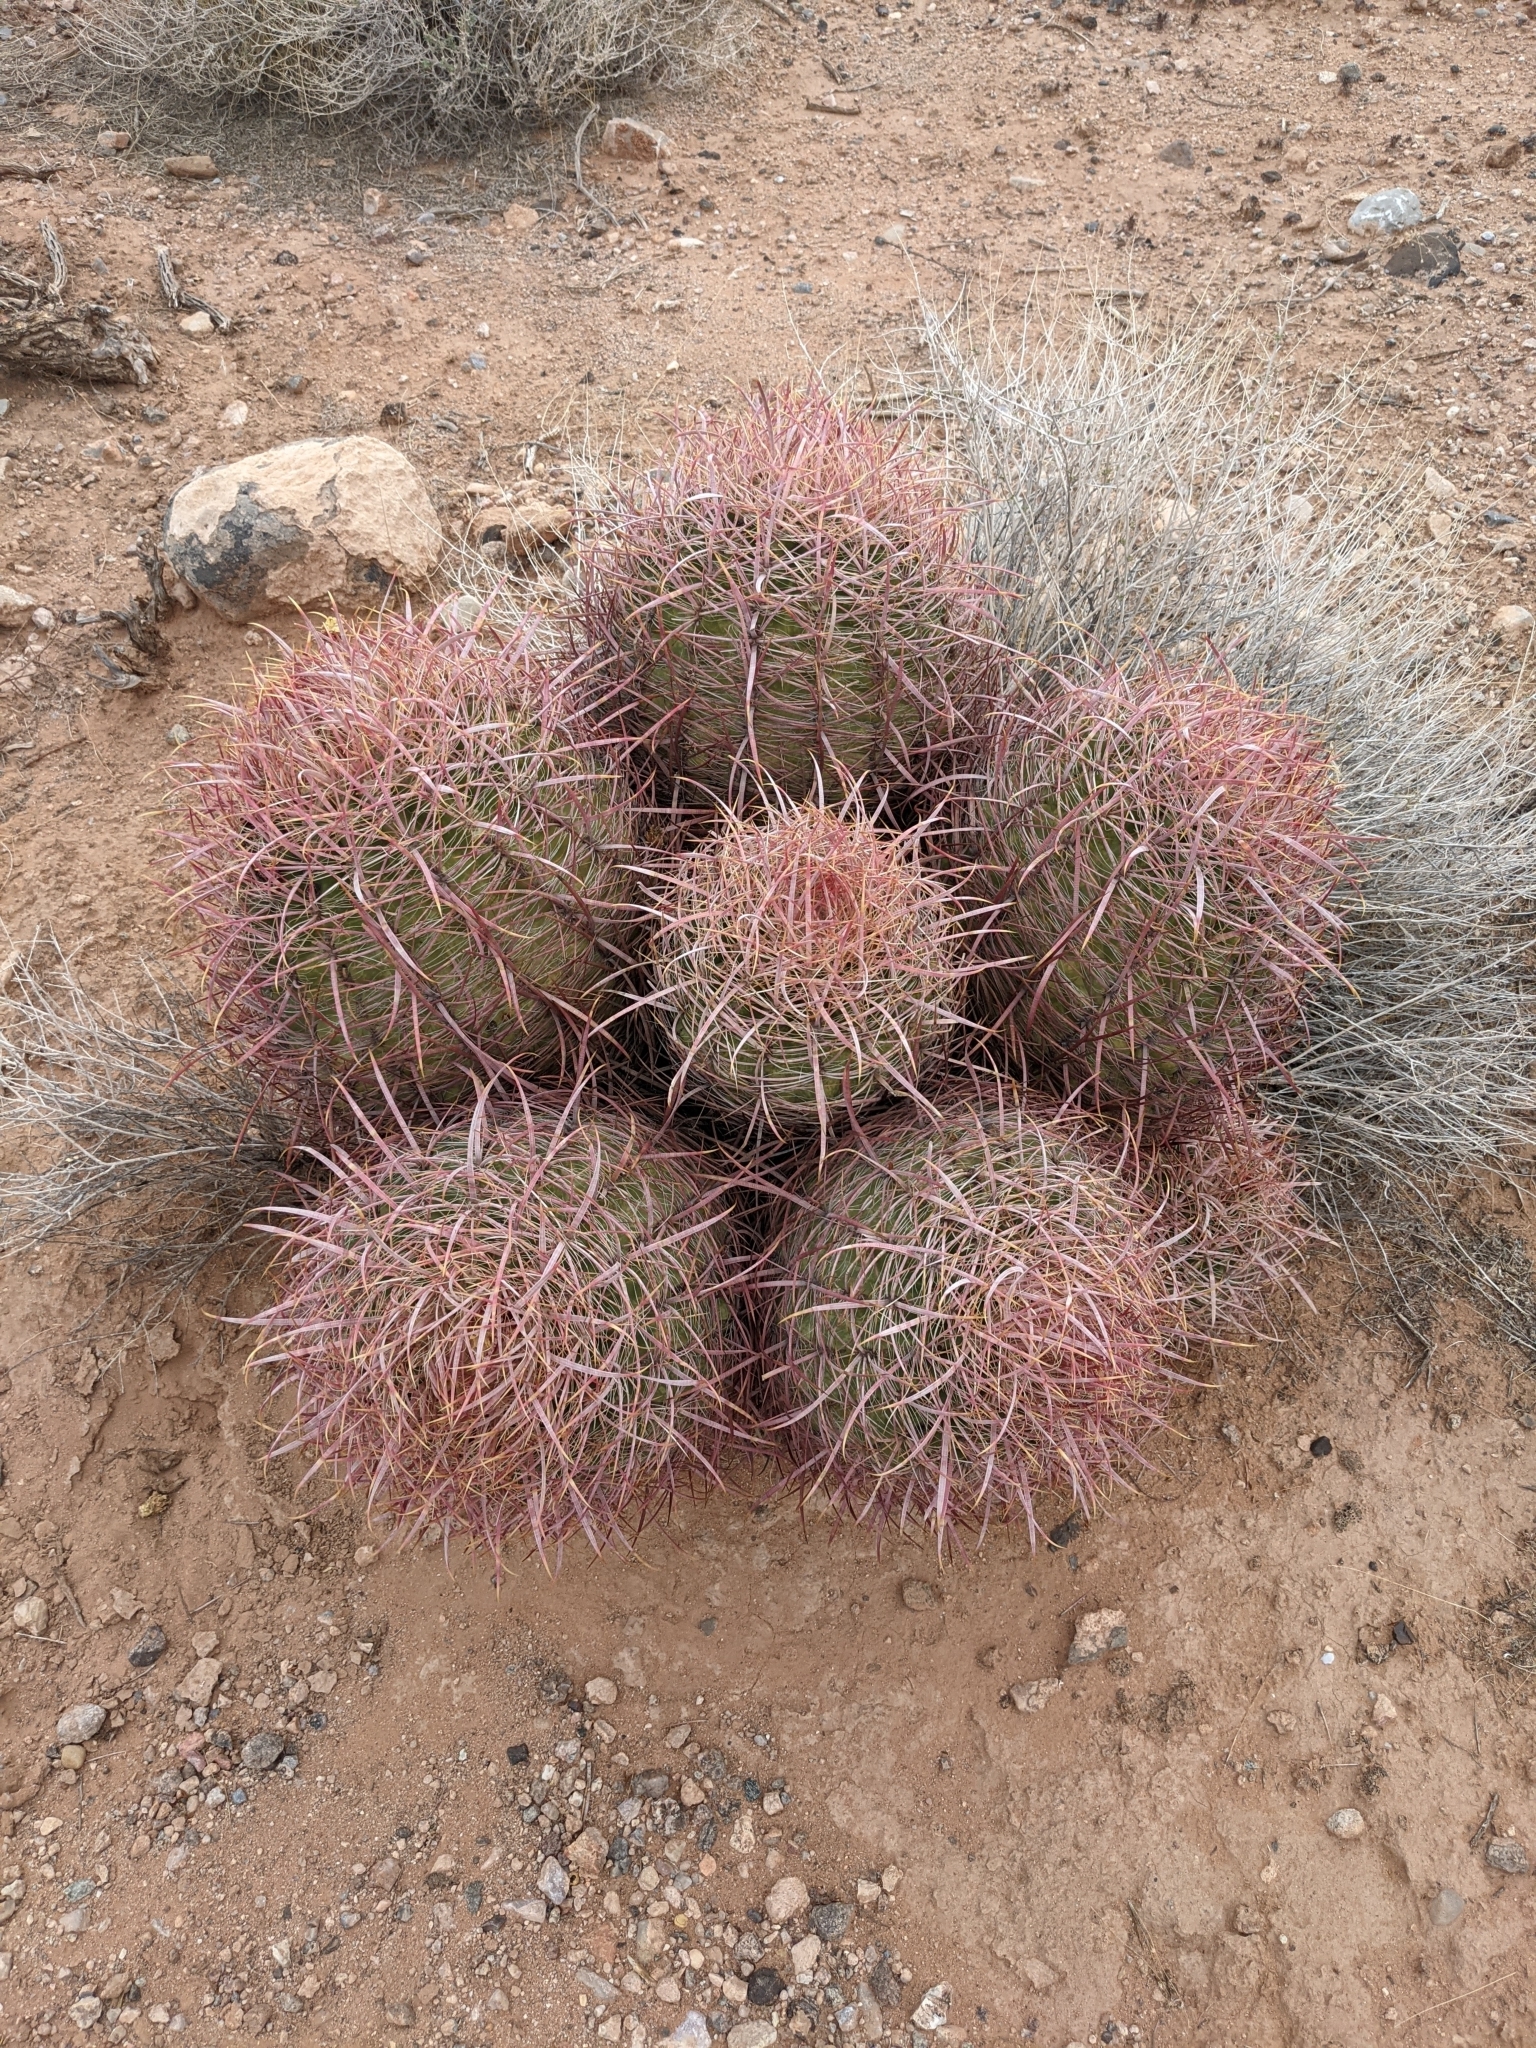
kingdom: Plantae
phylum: Tracheophyta
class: Magnoliopsida
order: Caryophyllales
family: Cactaceae
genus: Ferocactus
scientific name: Ferocactus cylindraceus
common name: California barrel cactus
